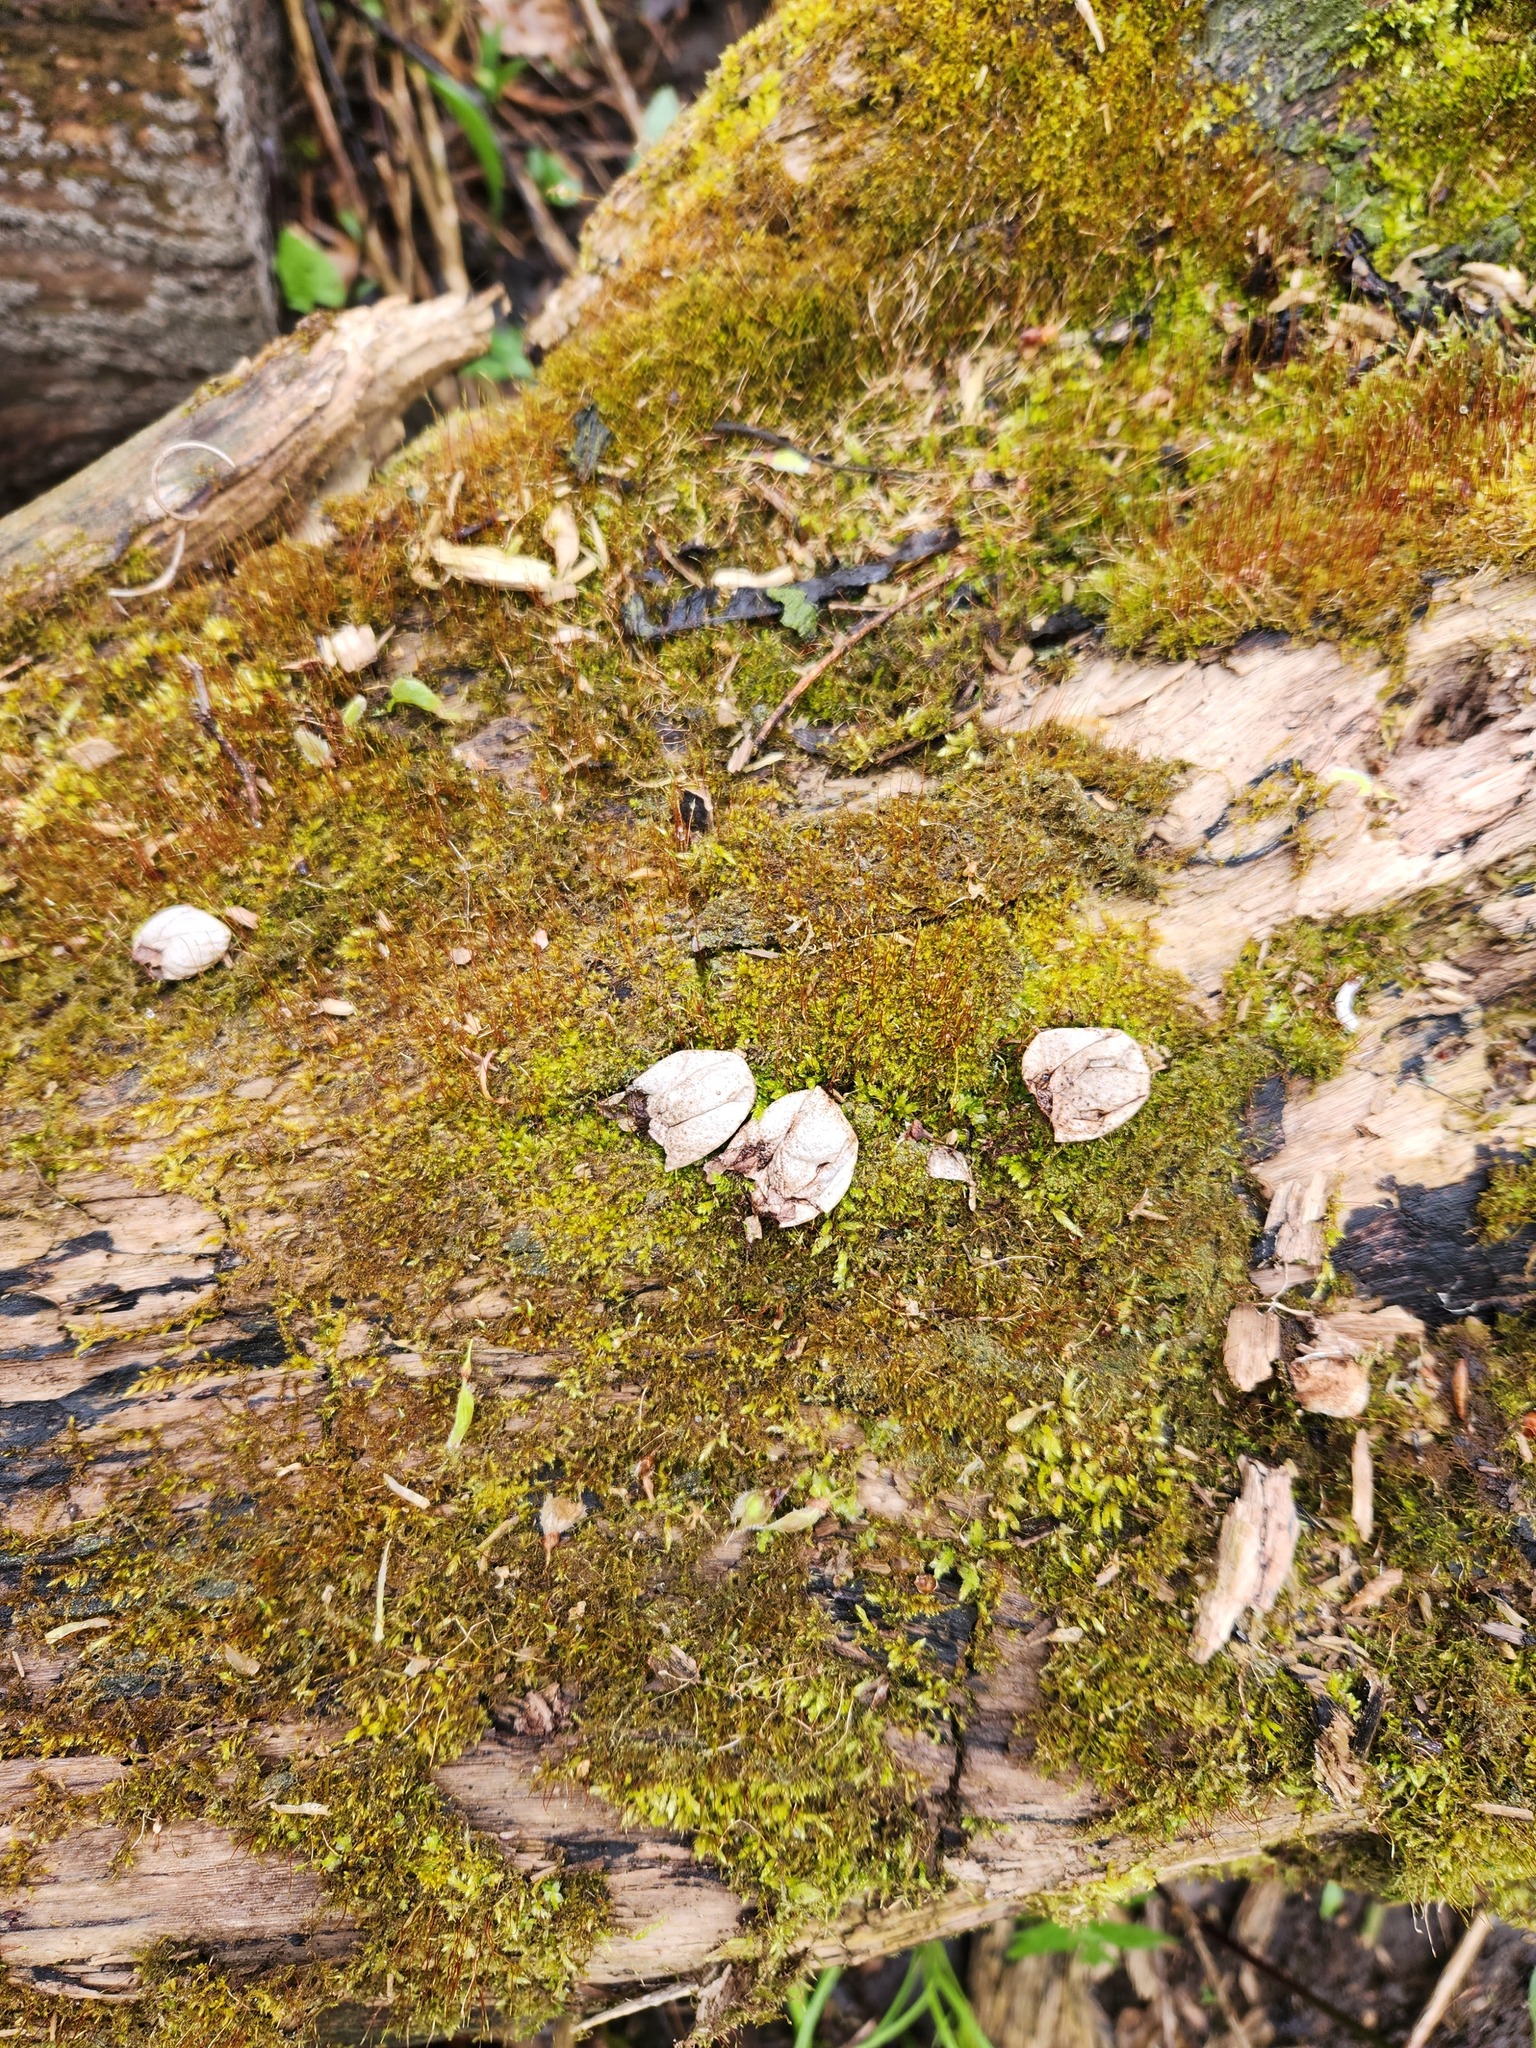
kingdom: Fungi
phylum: Basidiomycota
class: Agaricomycetes
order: Agaricales
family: Lycoperdaceae
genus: Apioperdon
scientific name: Apioperdon pyriforme
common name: Pear-shaped puffball
